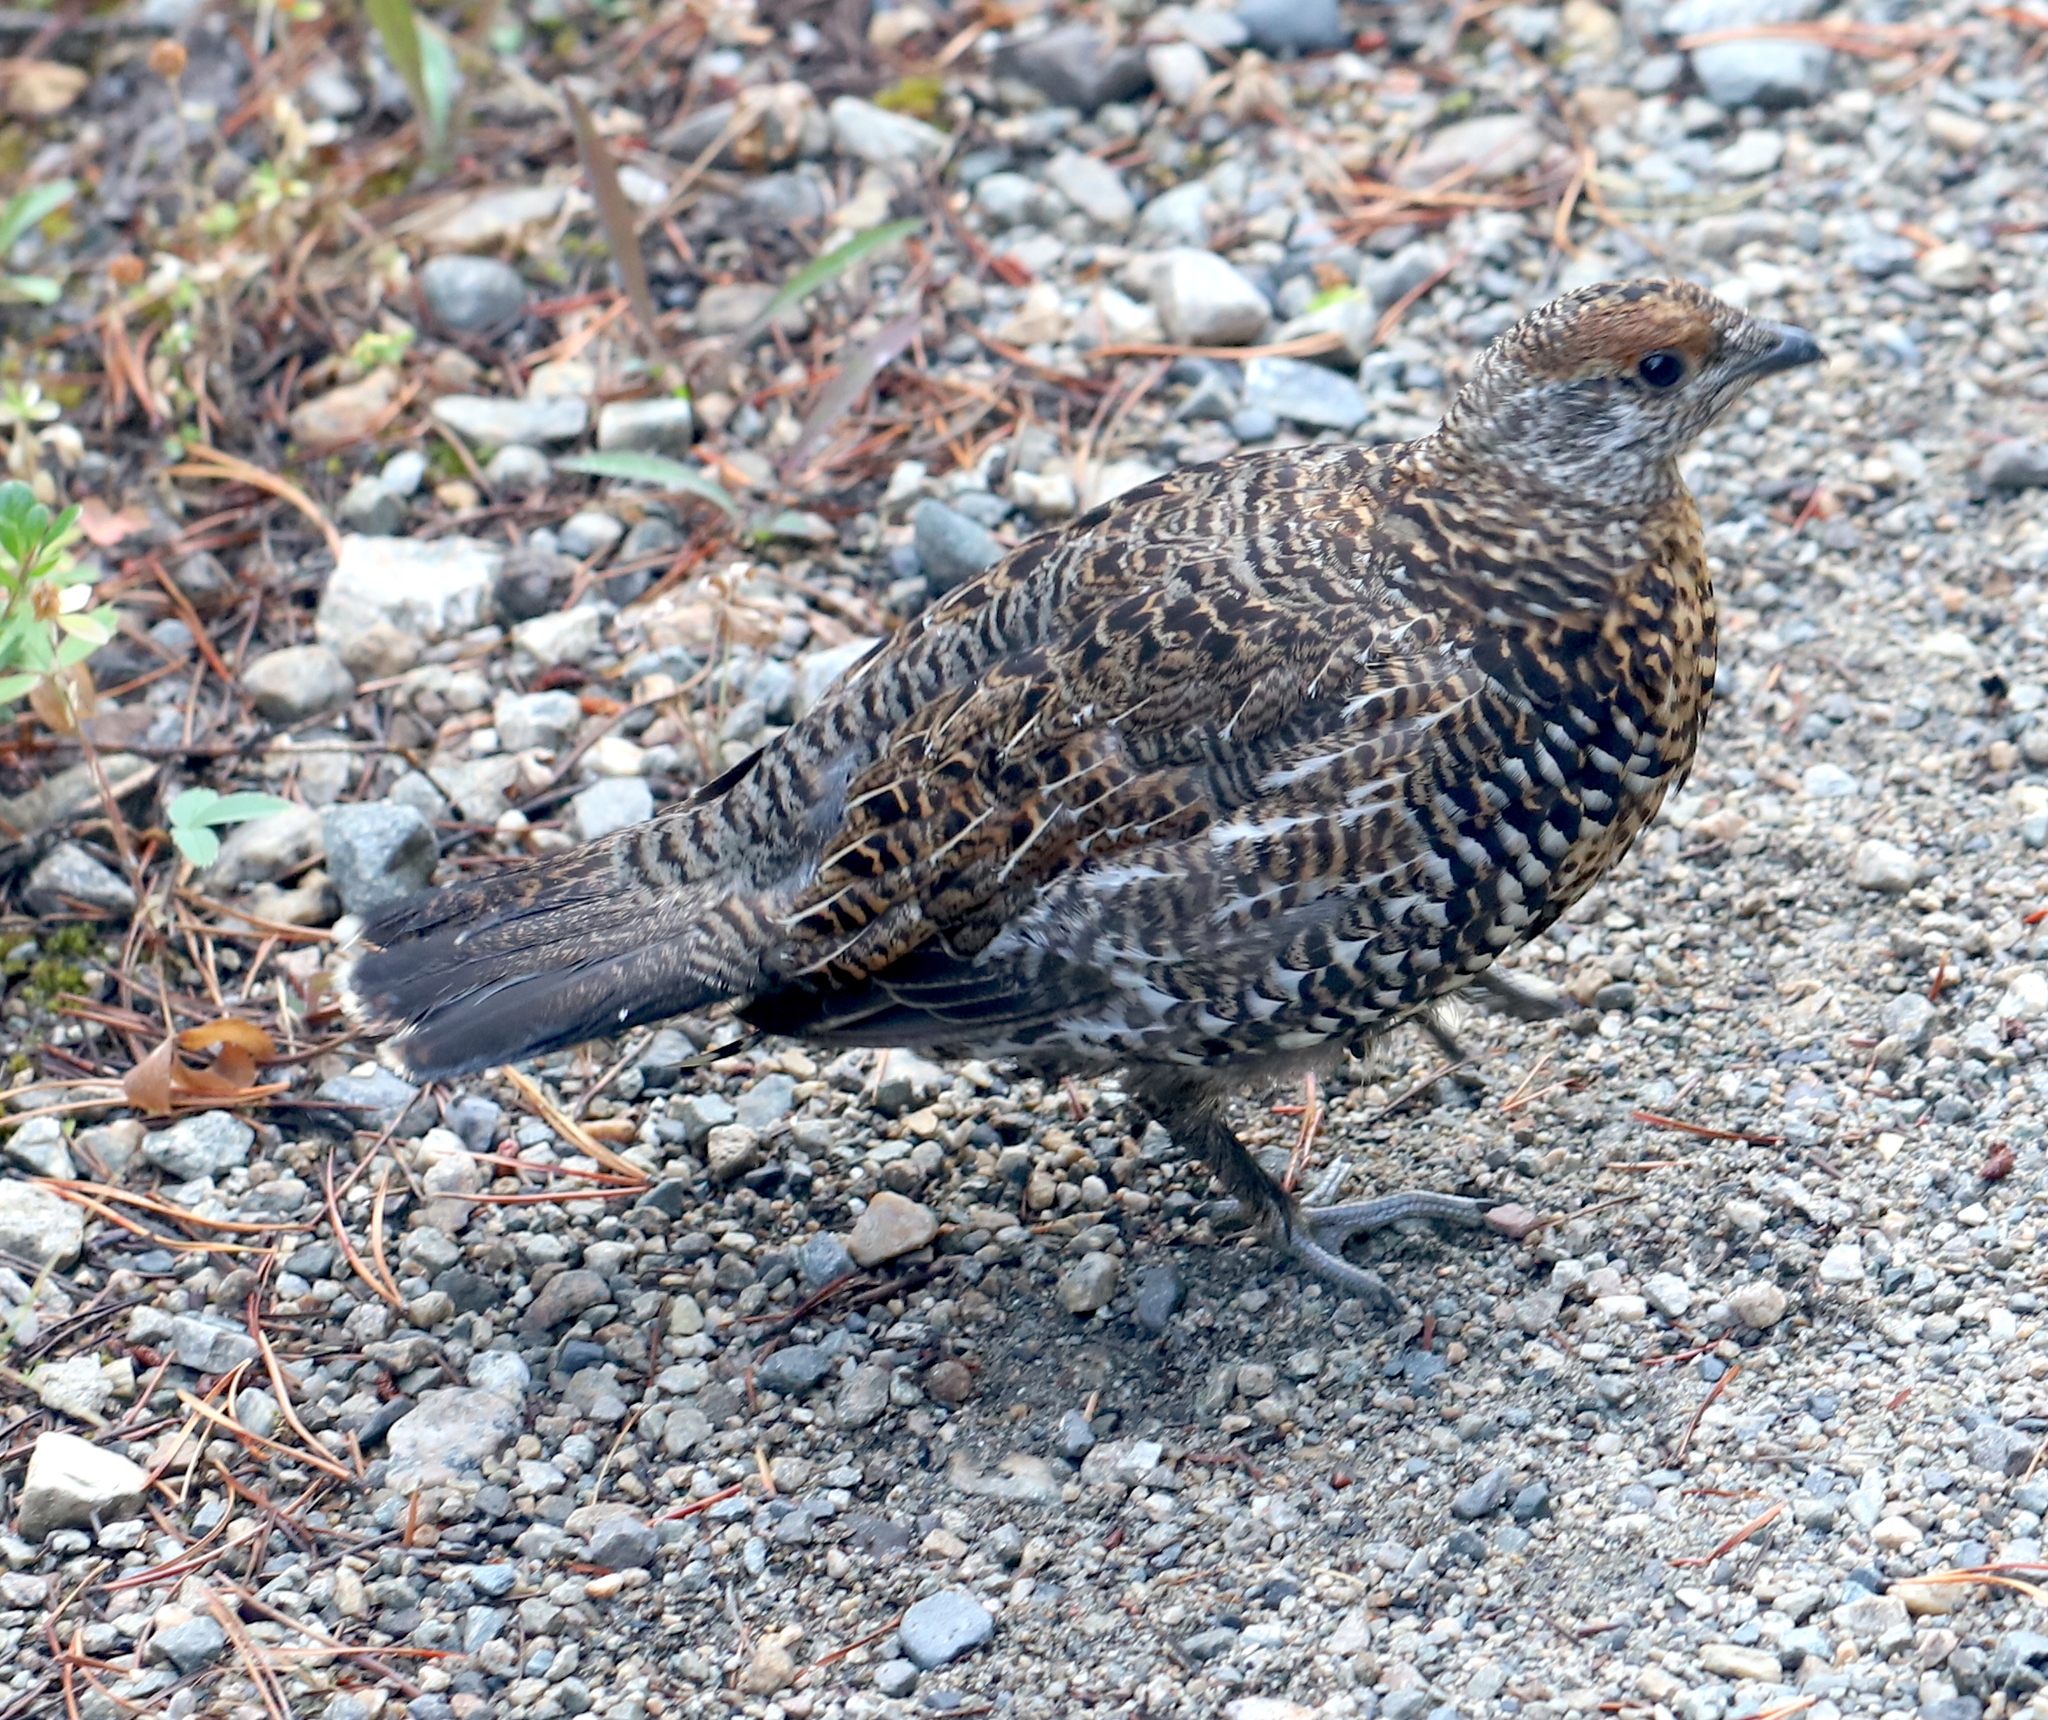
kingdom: Animalia
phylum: Chordata
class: Aves
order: Galliformes
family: Phasianidae
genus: Canachites
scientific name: Canachites canadensis
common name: Spruce grouse
